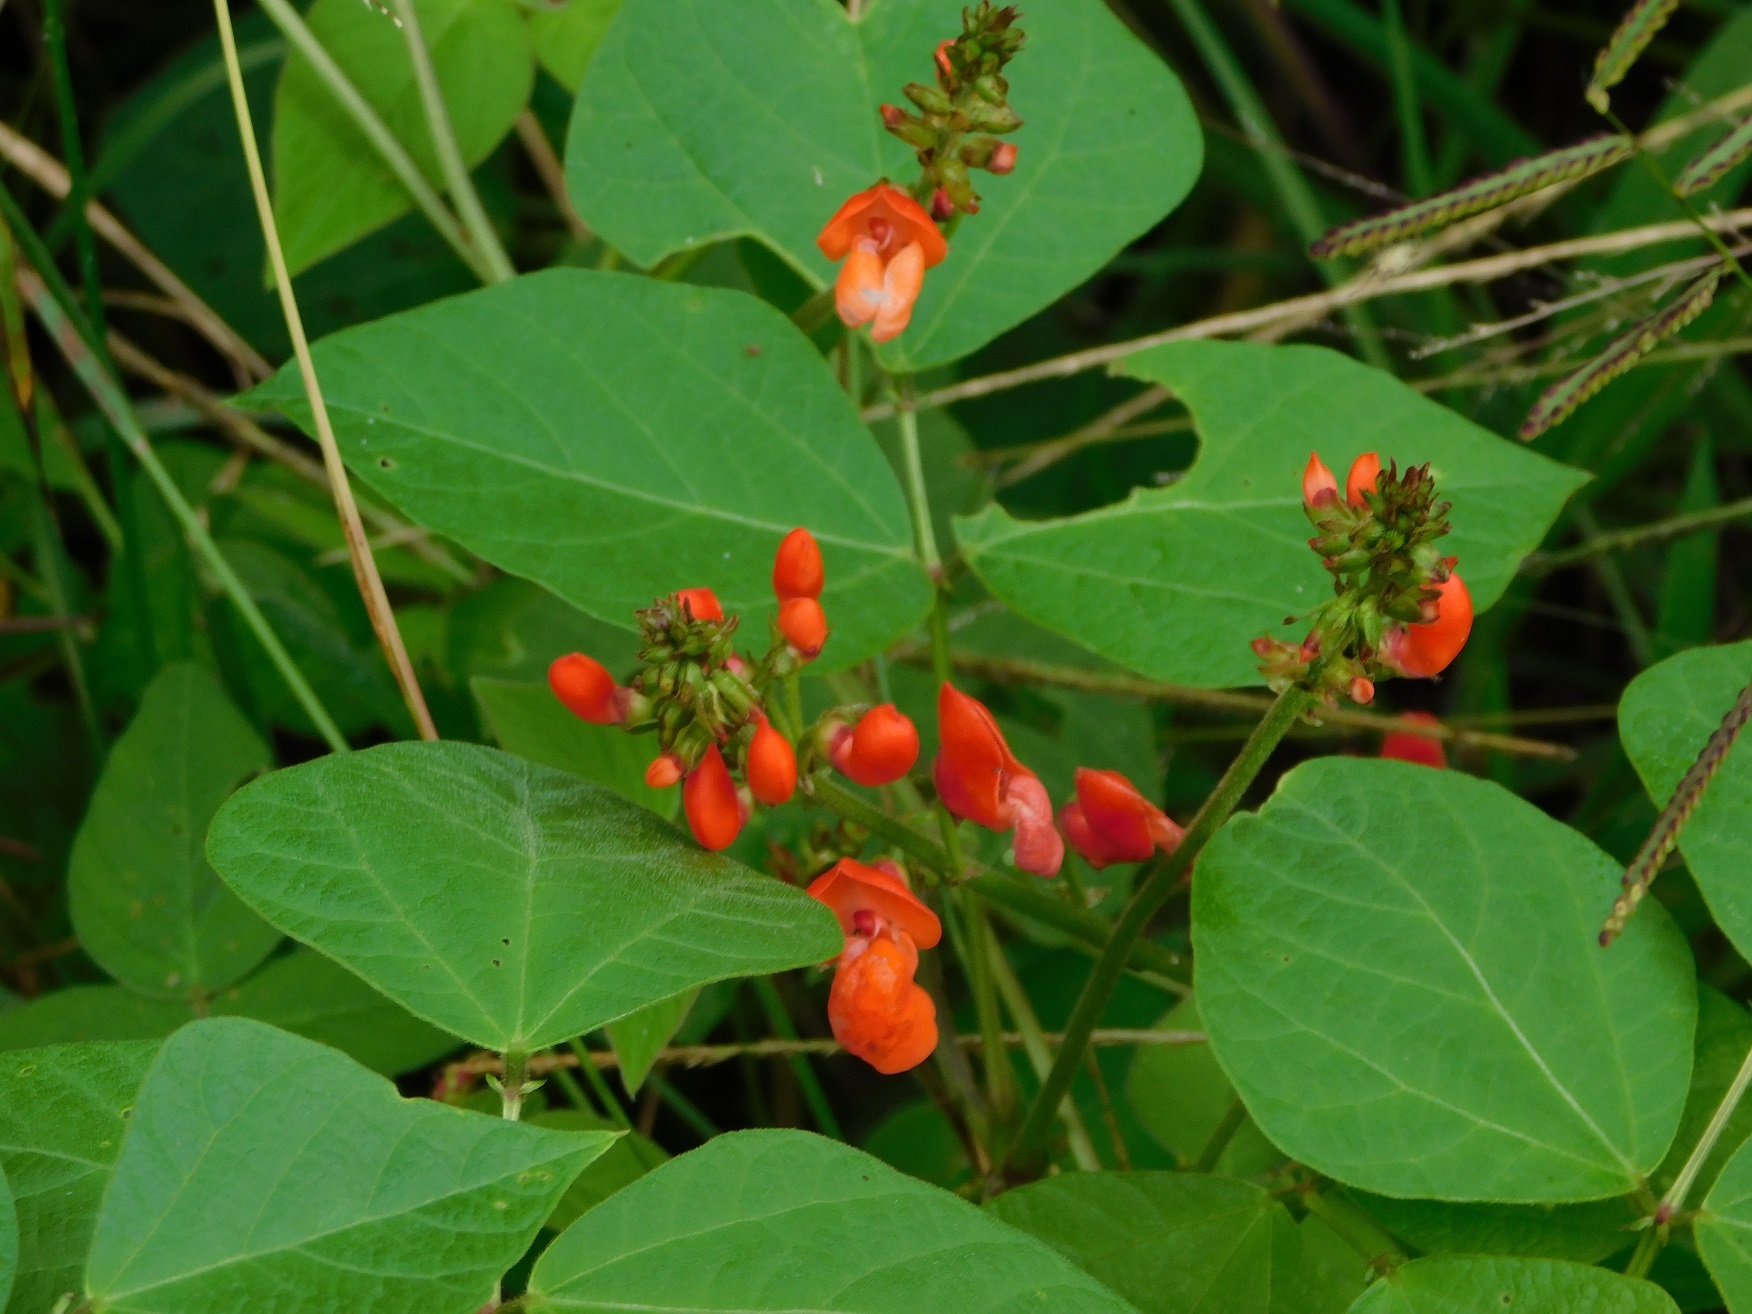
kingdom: Plantae
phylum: Tracheophyta
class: Magnoliopsida
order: Fabales
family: Fabaceae
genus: Phaseolus
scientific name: Phaseolus coccineus
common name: Runner bean
